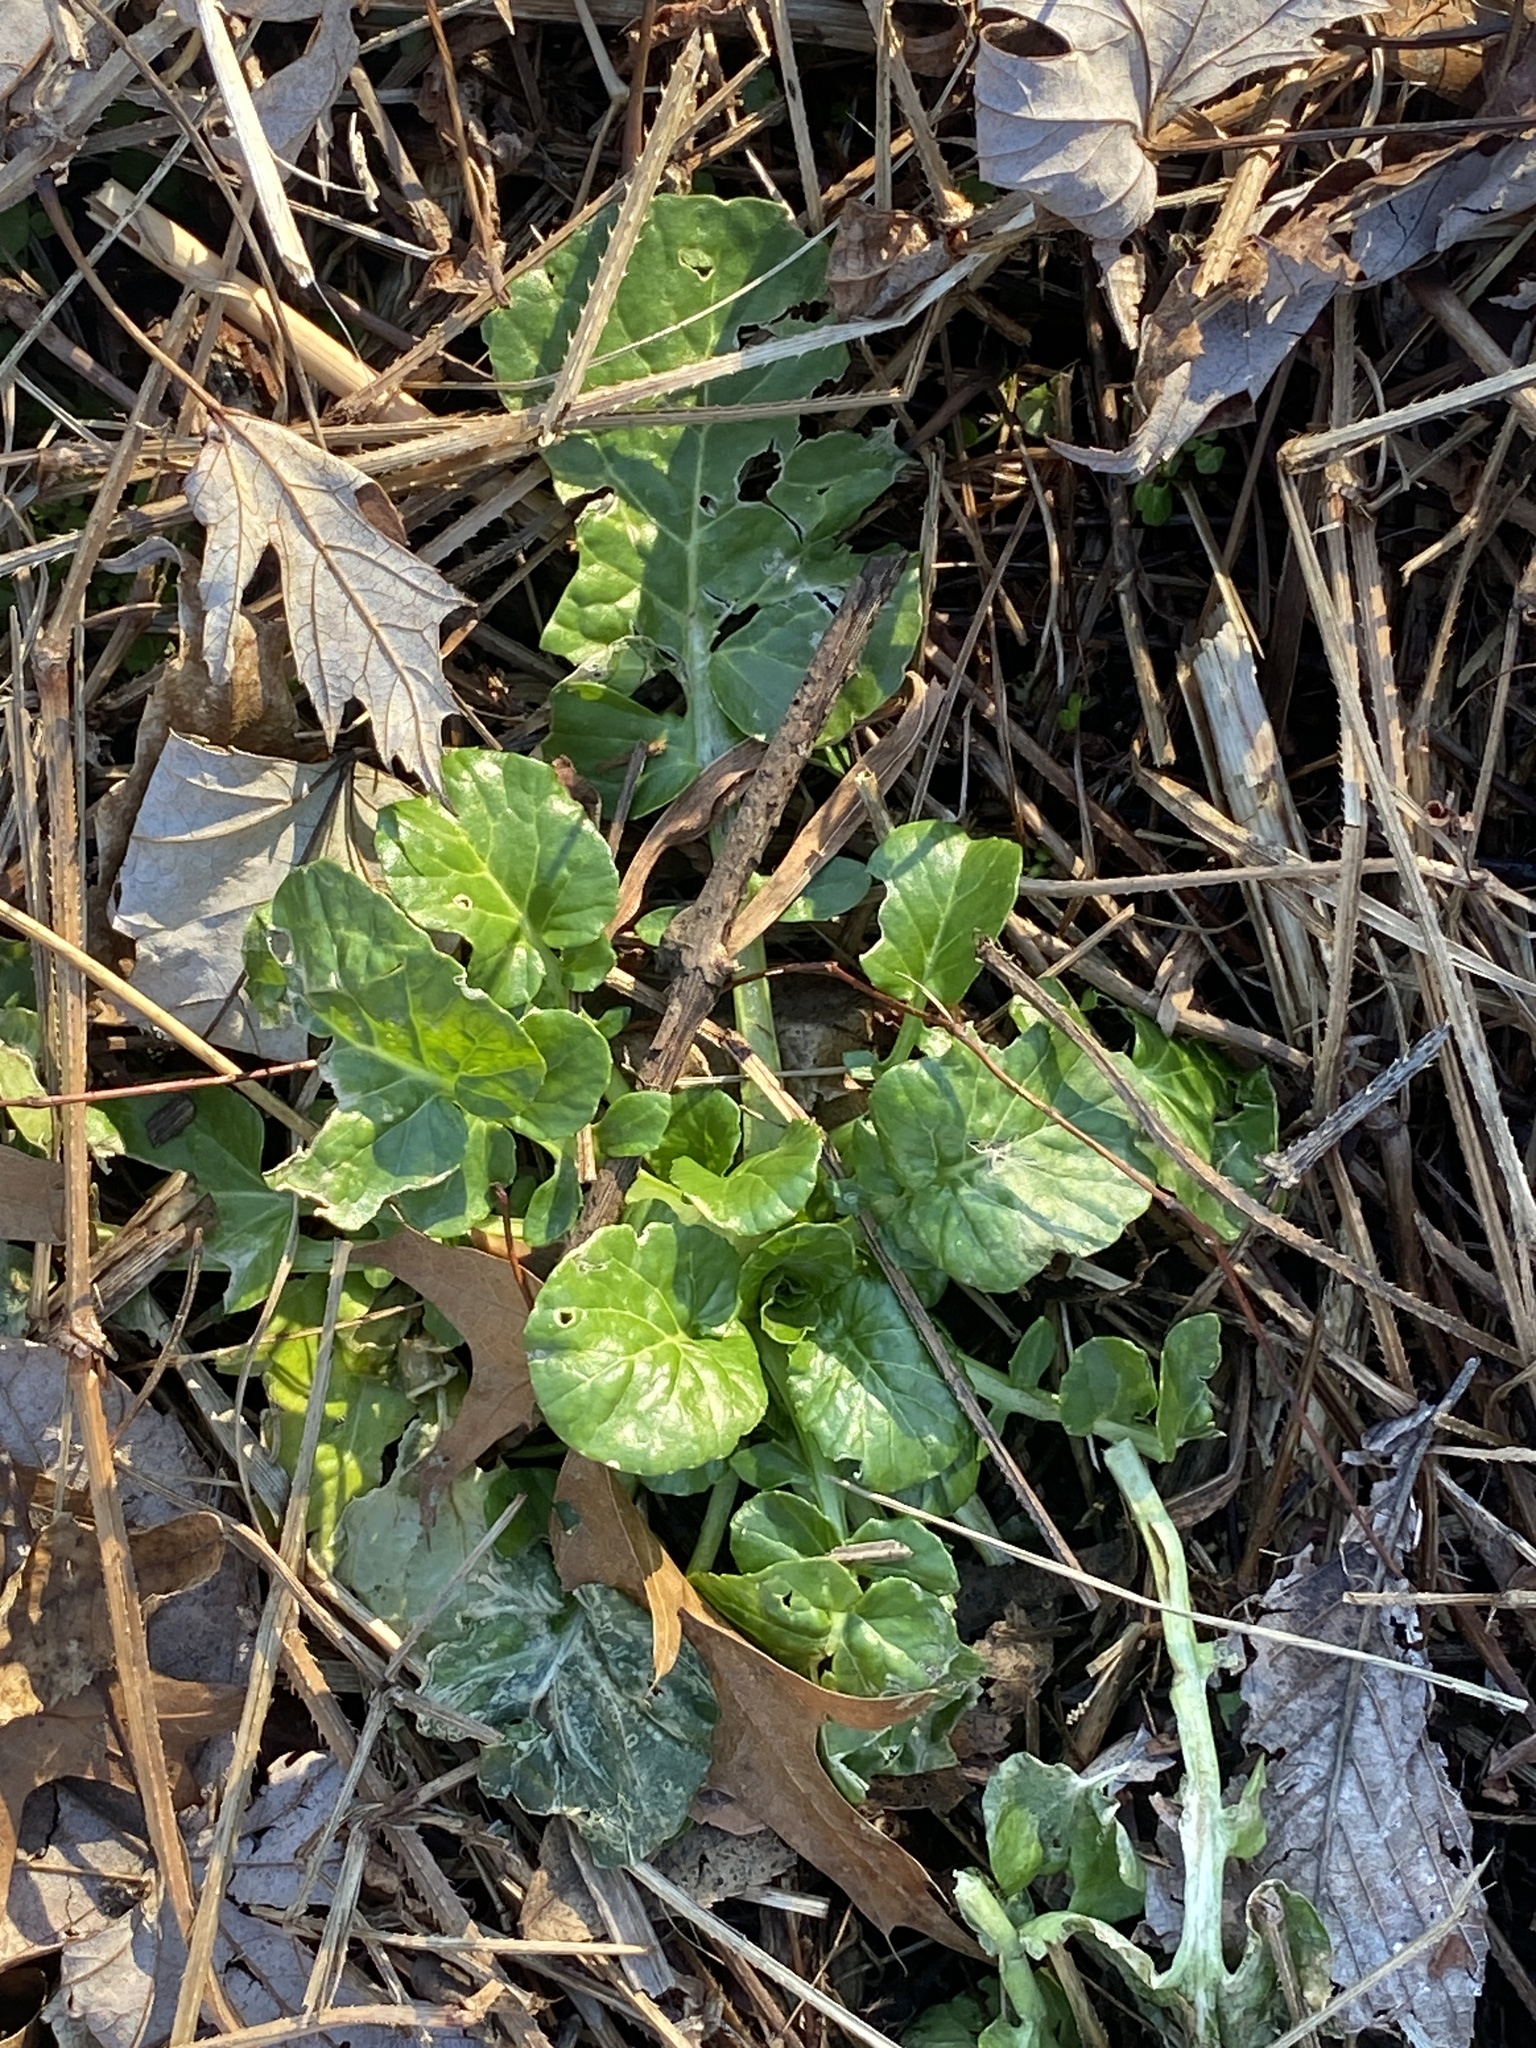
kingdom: Plantae
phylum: Tracheophyta
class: Magnoliopsida
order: Brassicales
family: Brassicaceae
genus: Barbarea
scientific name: Barbarea vulgaris
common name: Cressy-greens
